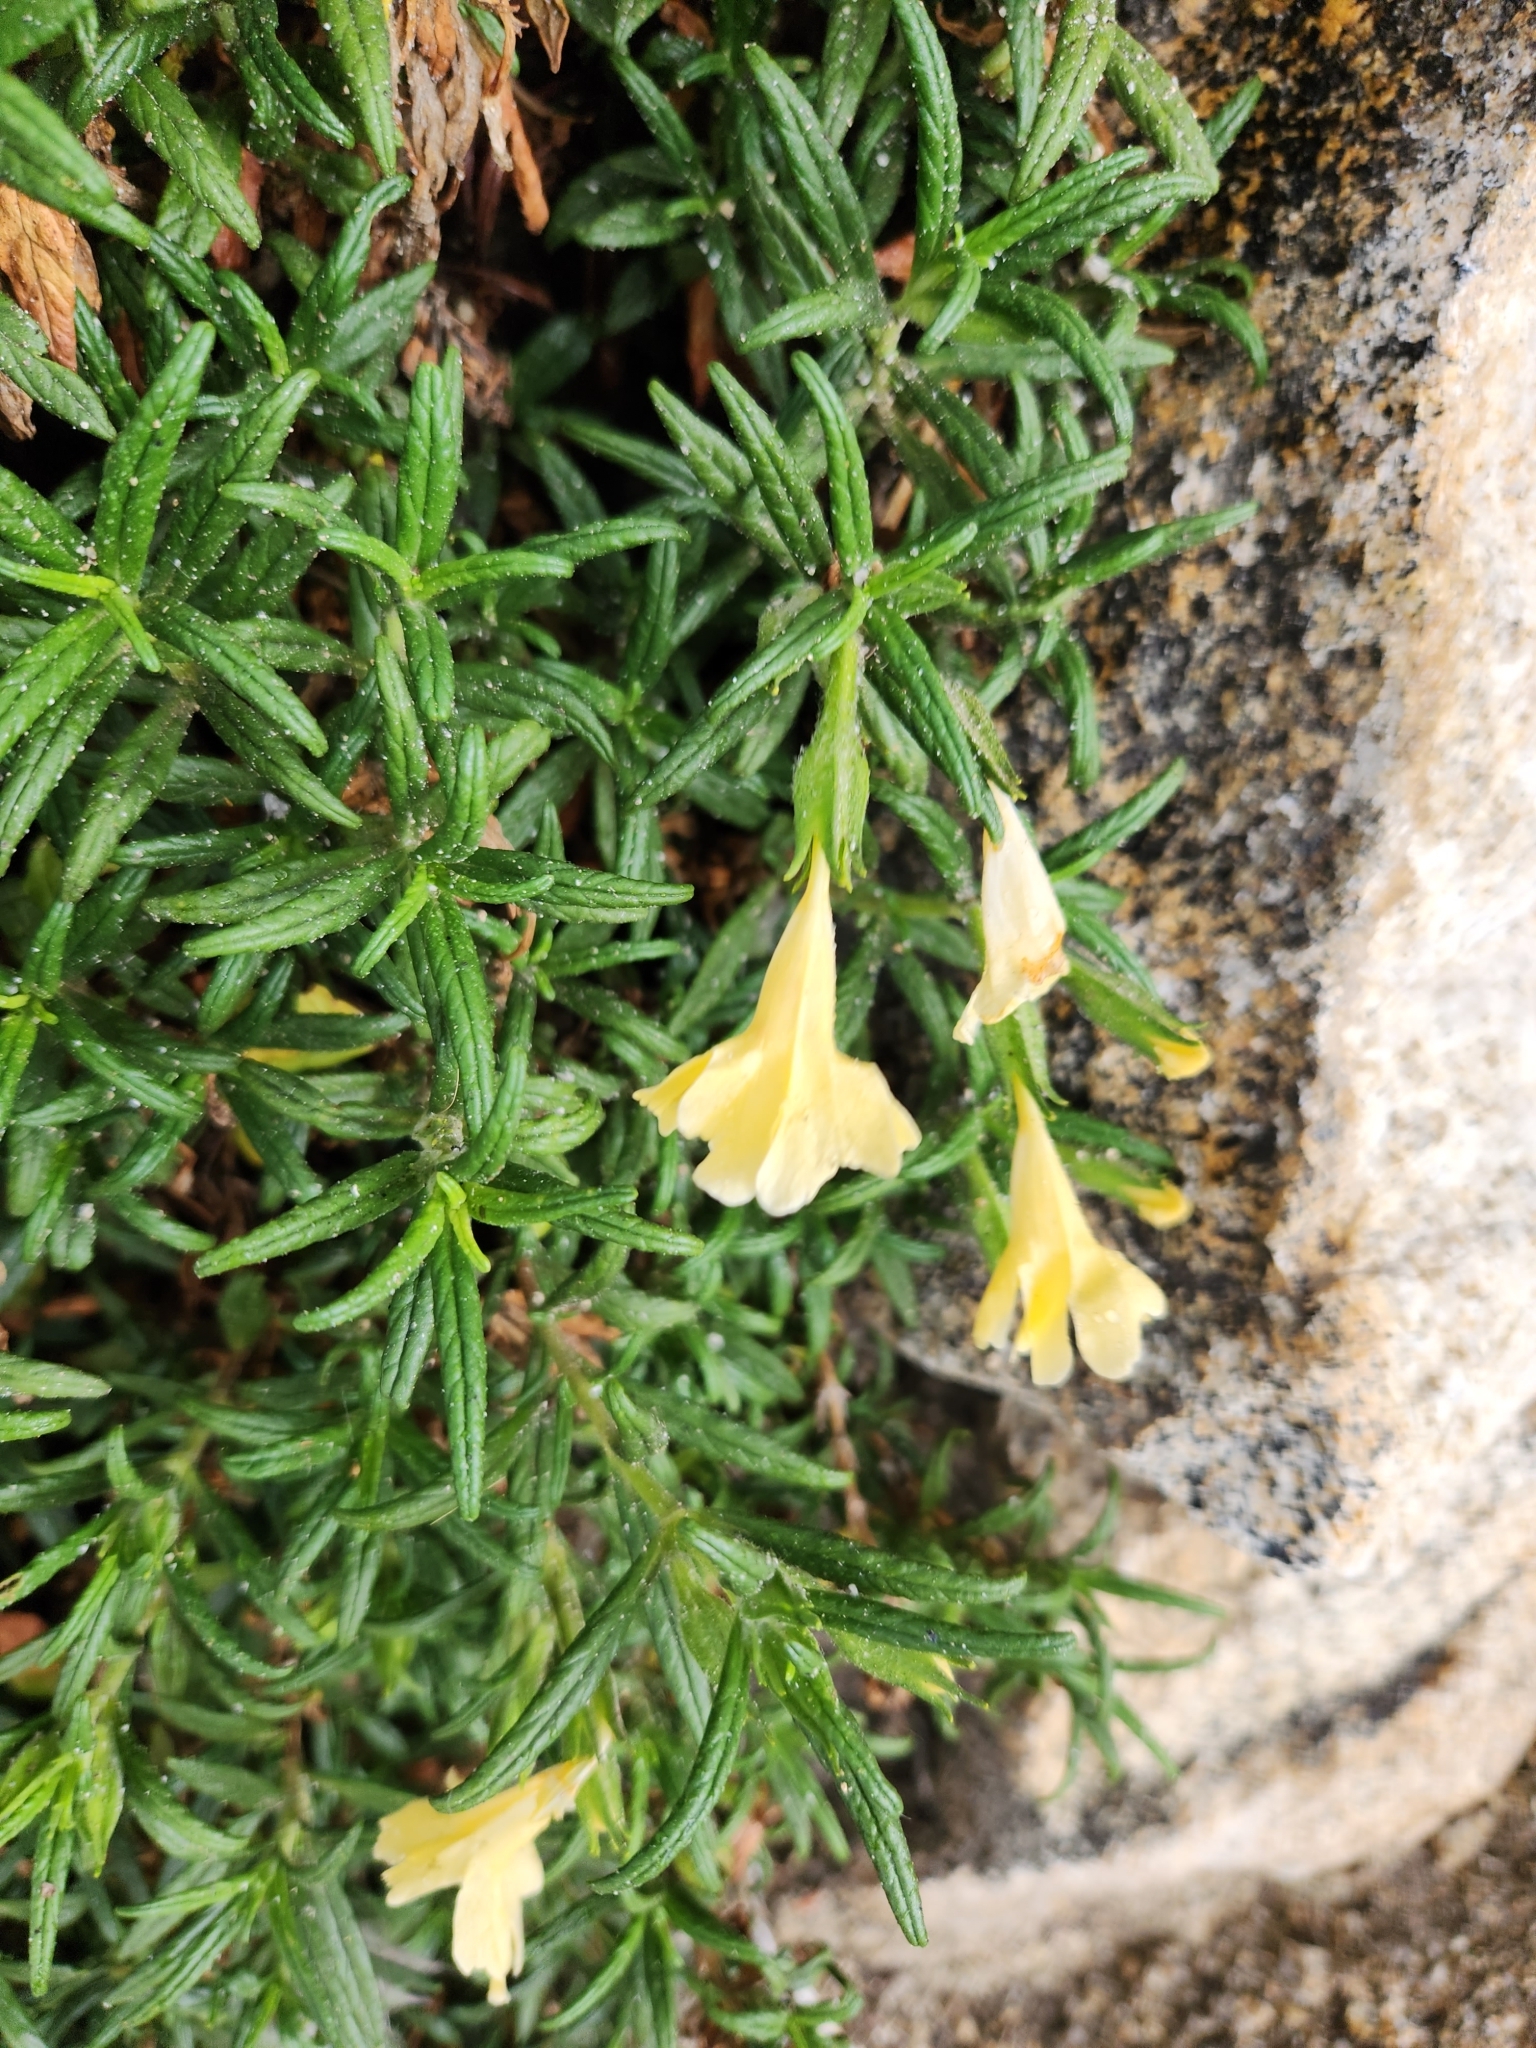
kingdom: Plantae
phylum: Tracheophyta
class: Magnoliopsida
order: Lamiales
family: Phrymaceae
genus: Diplacus
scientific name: Diplacus calycinus
